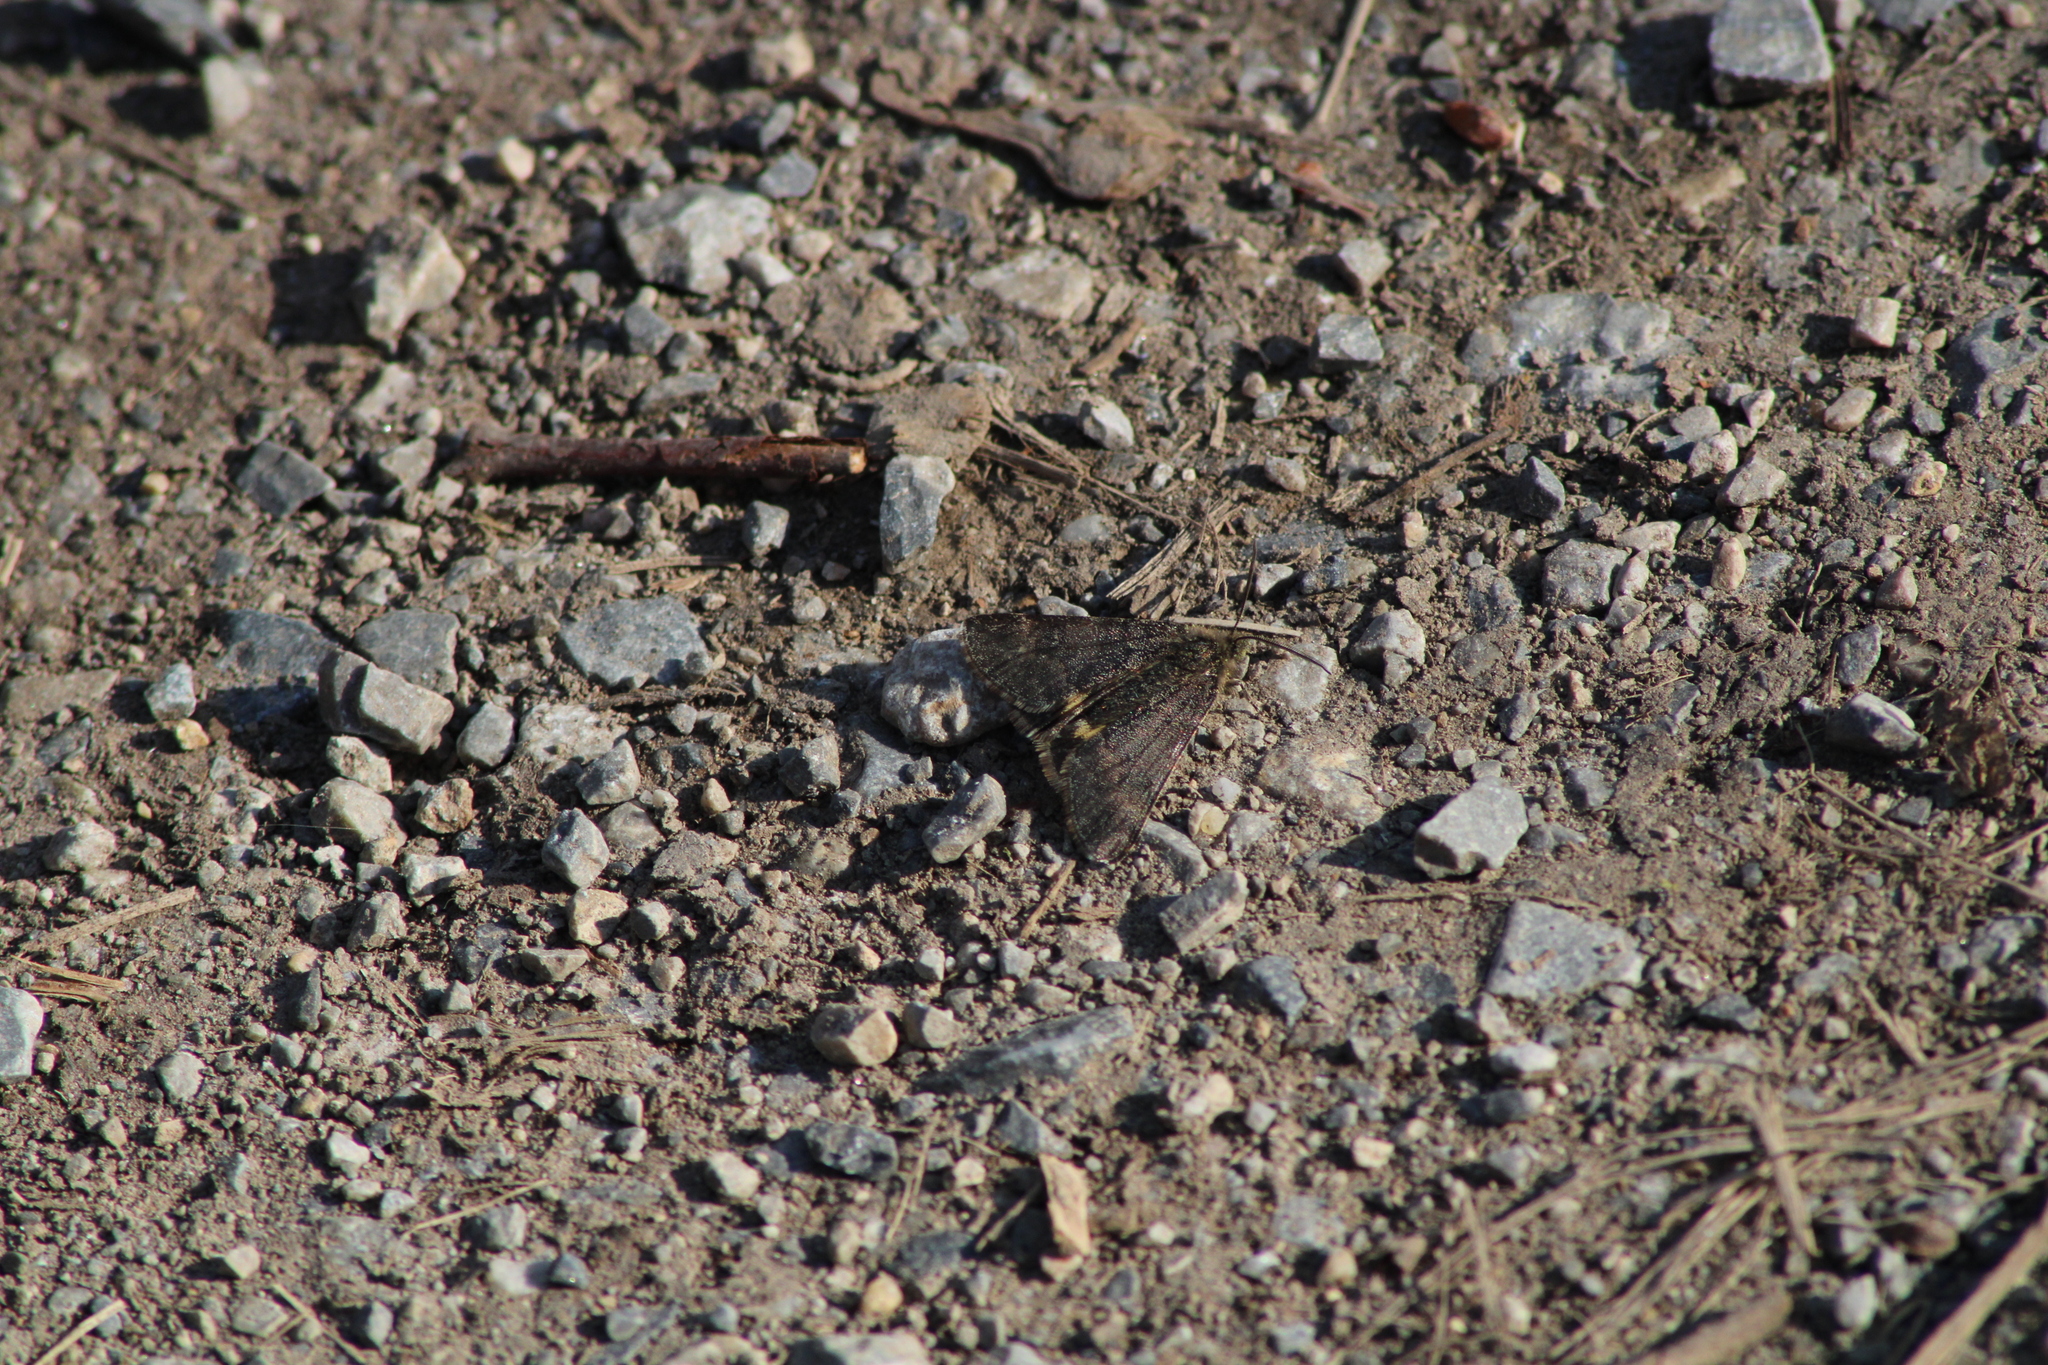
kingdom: Animalia
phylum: Arthropoda
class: Insecta
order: Lepidoptera
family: Geometridae
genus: Boudinotiana
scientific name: Boudinotiana puella
